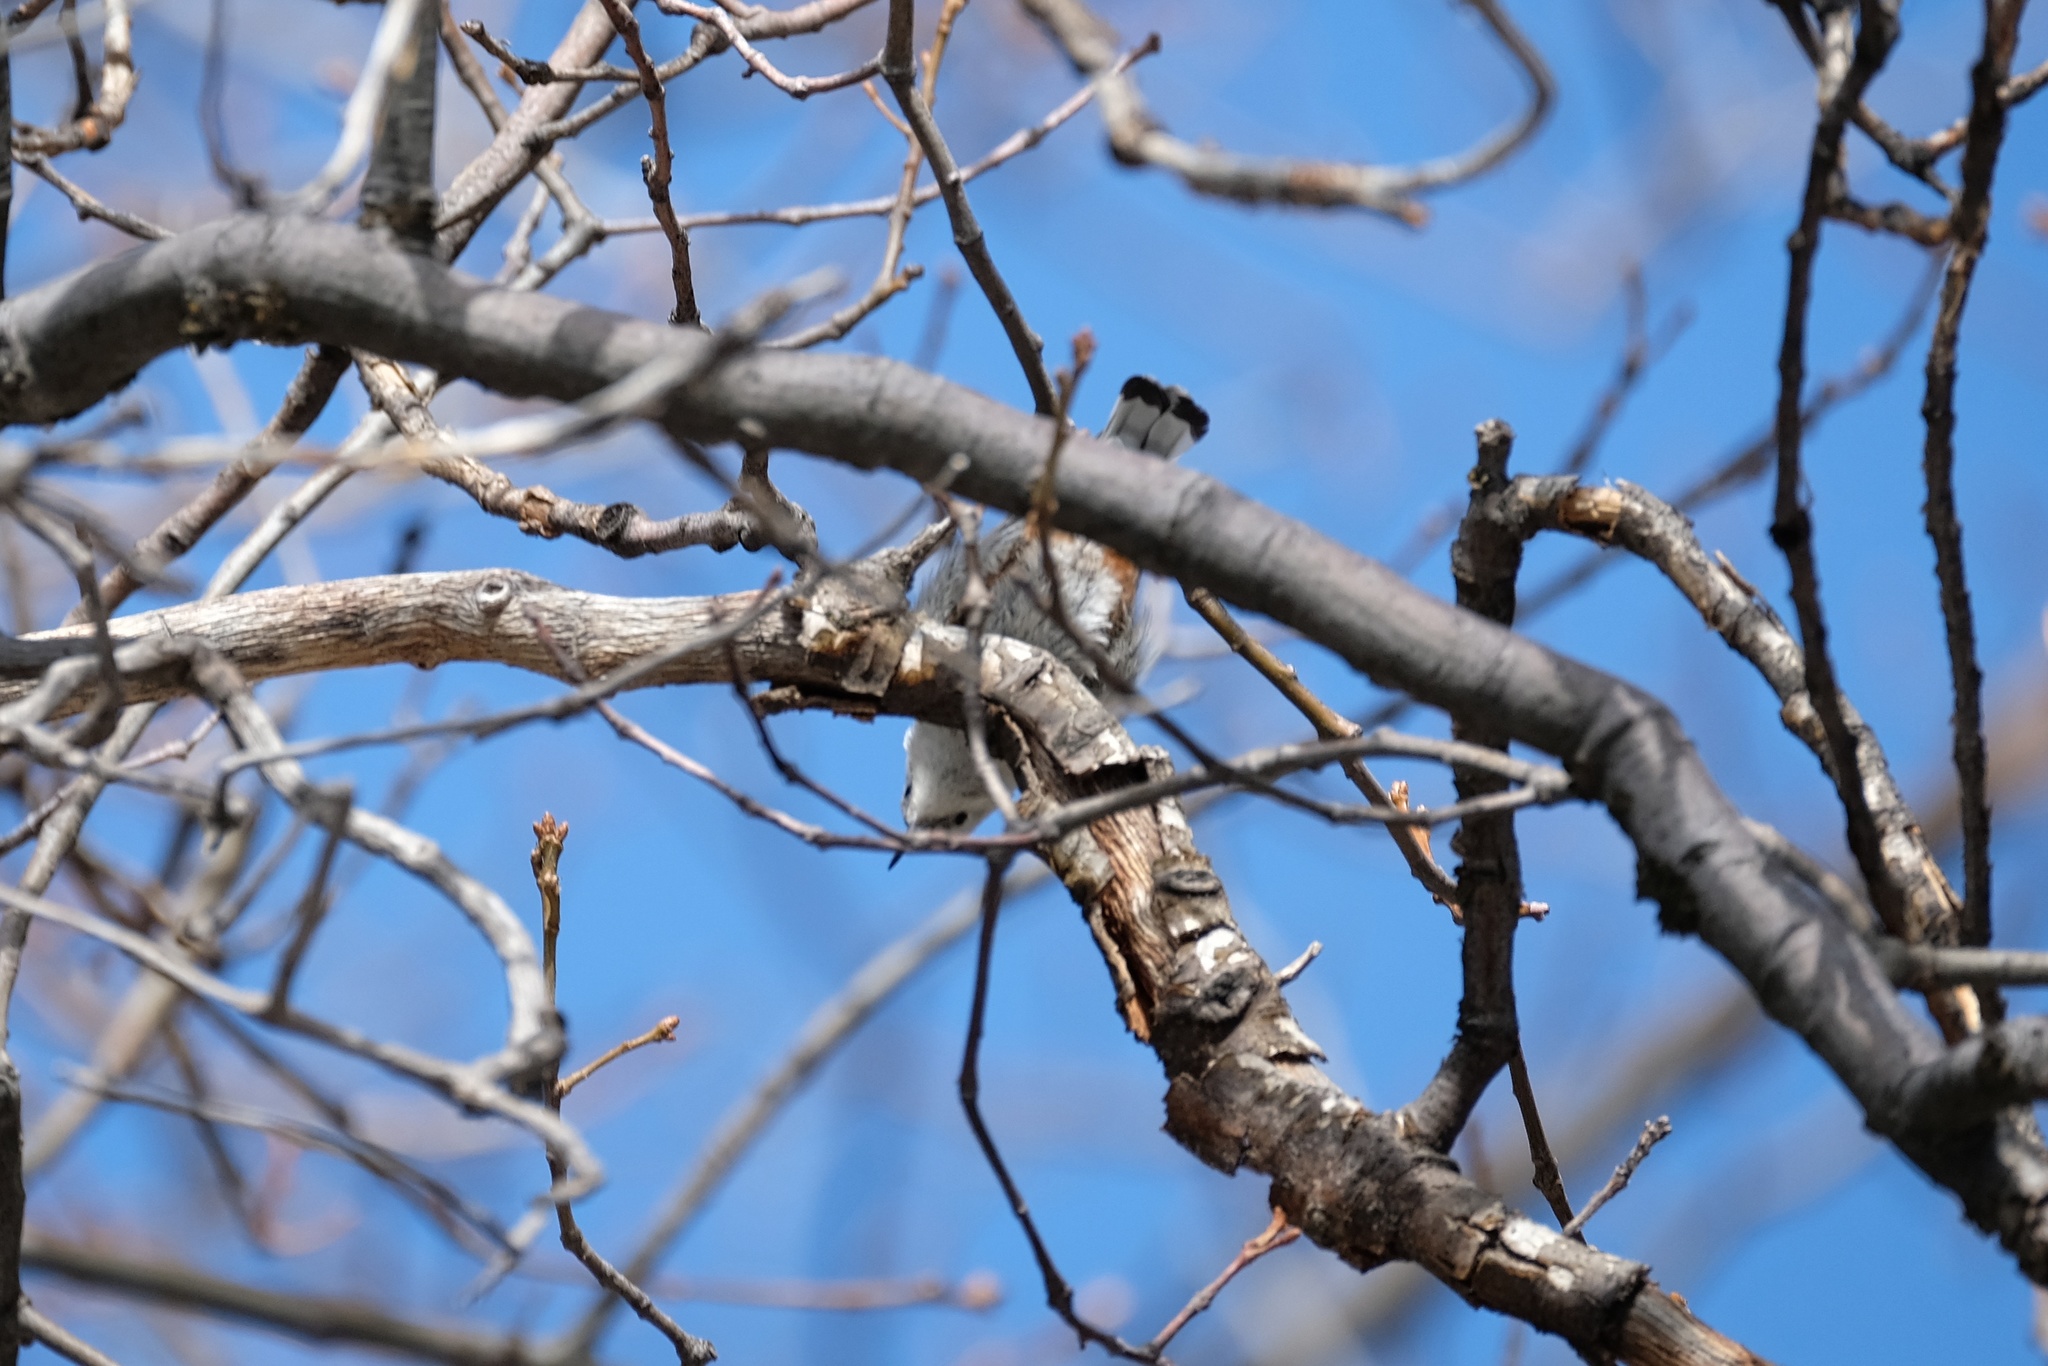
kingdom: Animalia
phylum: Chordata
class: Aves
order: Passeriformes
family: Sittidae
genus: Sitta
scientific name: Sitta carolinensis
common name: White-breasted nuthatch
